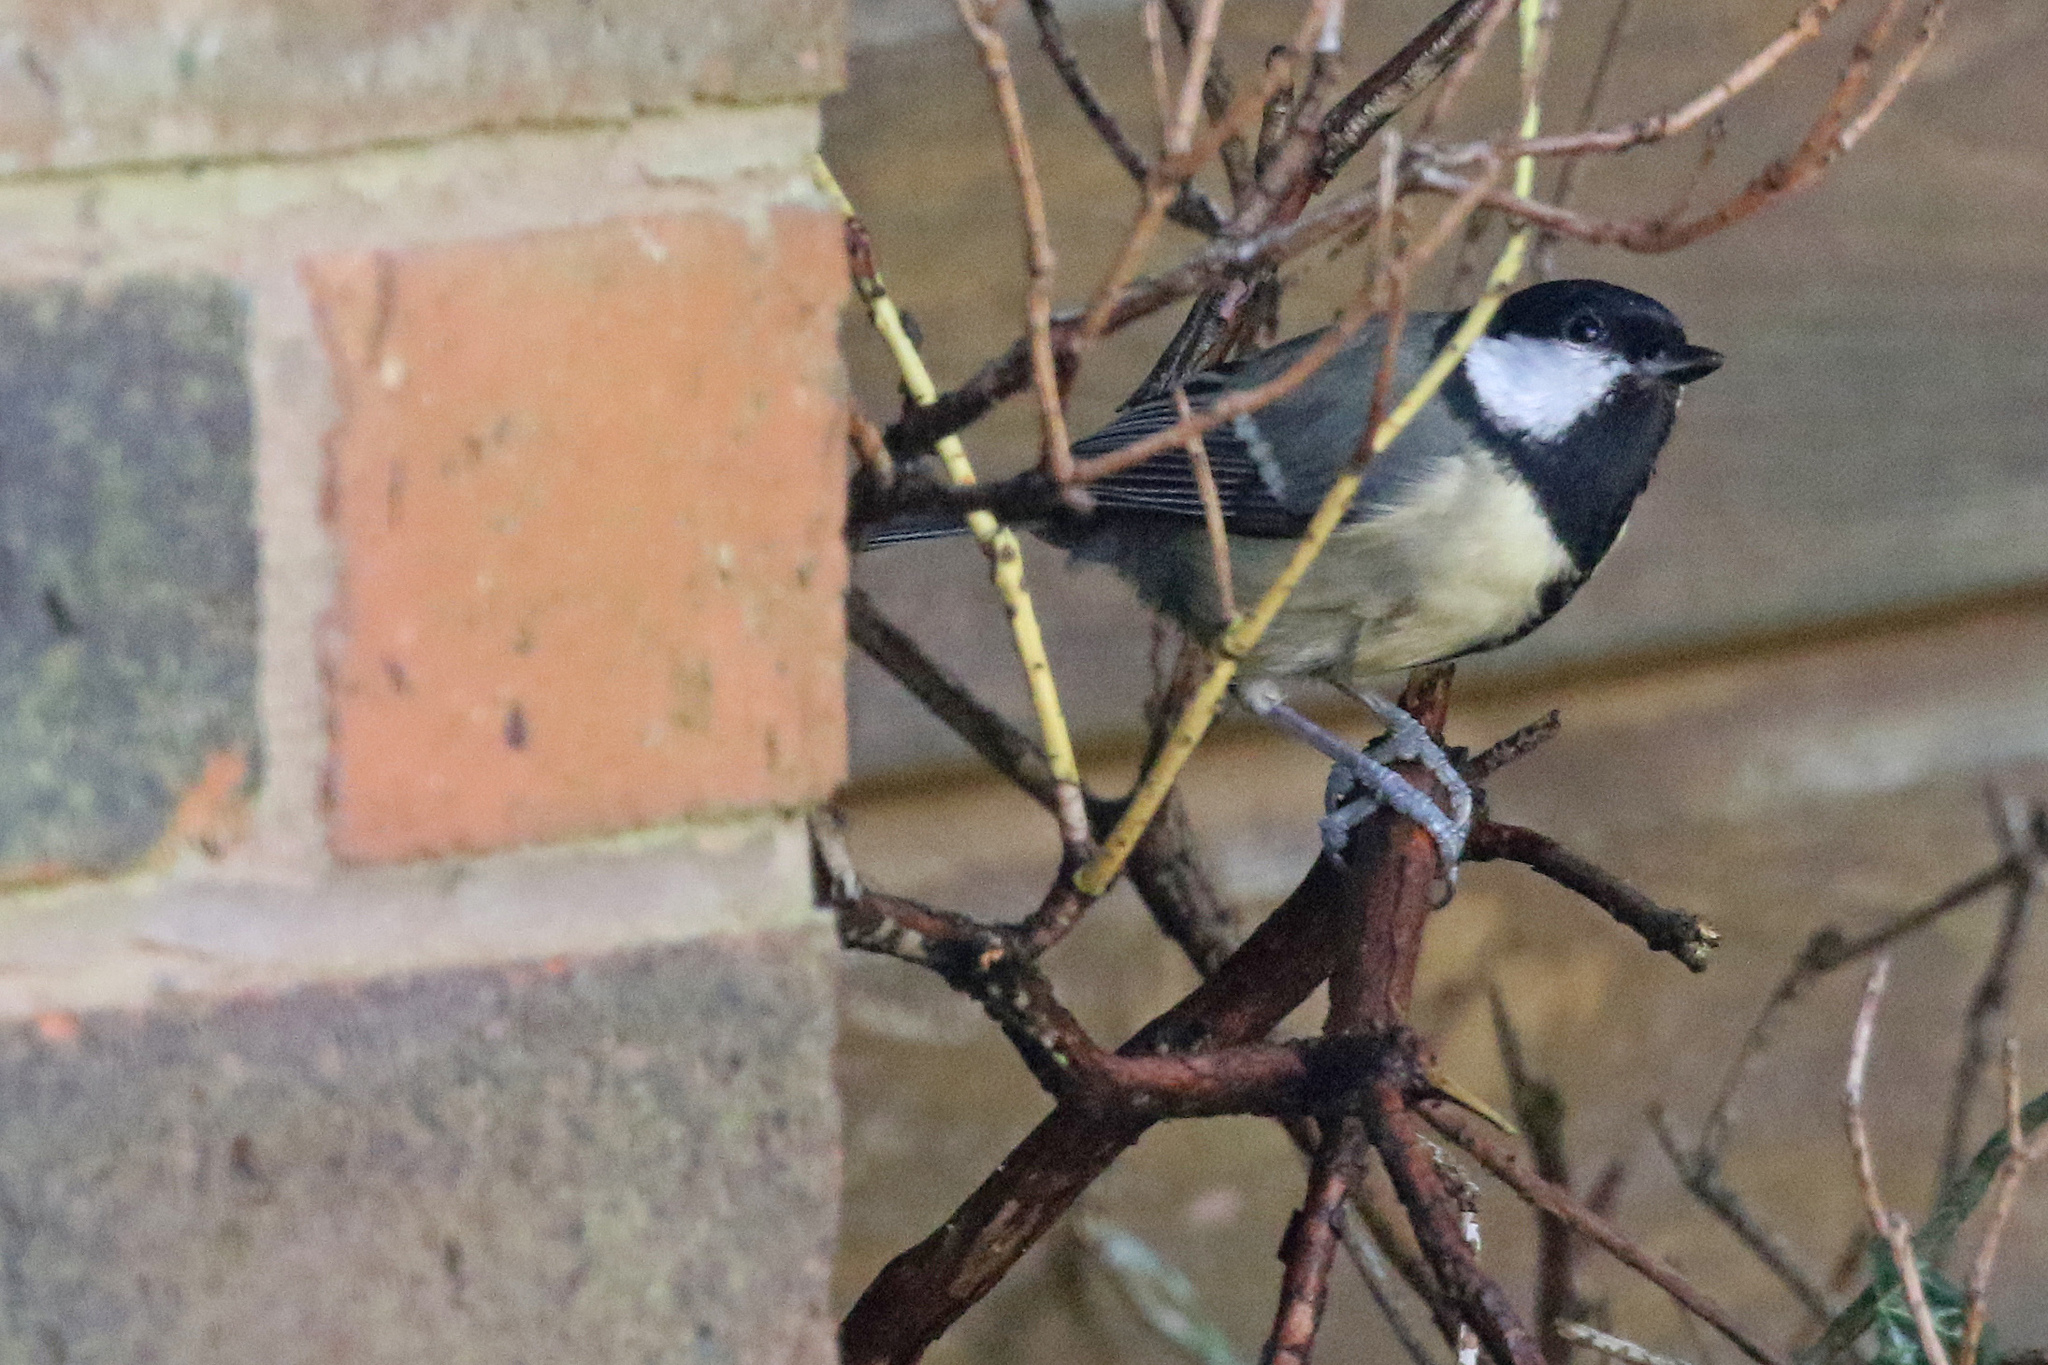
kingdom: Animalia
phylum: Chordata
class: Aves
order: Passeriformes
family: Paridae
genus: Parus
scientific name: Parus major
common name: Great tit
